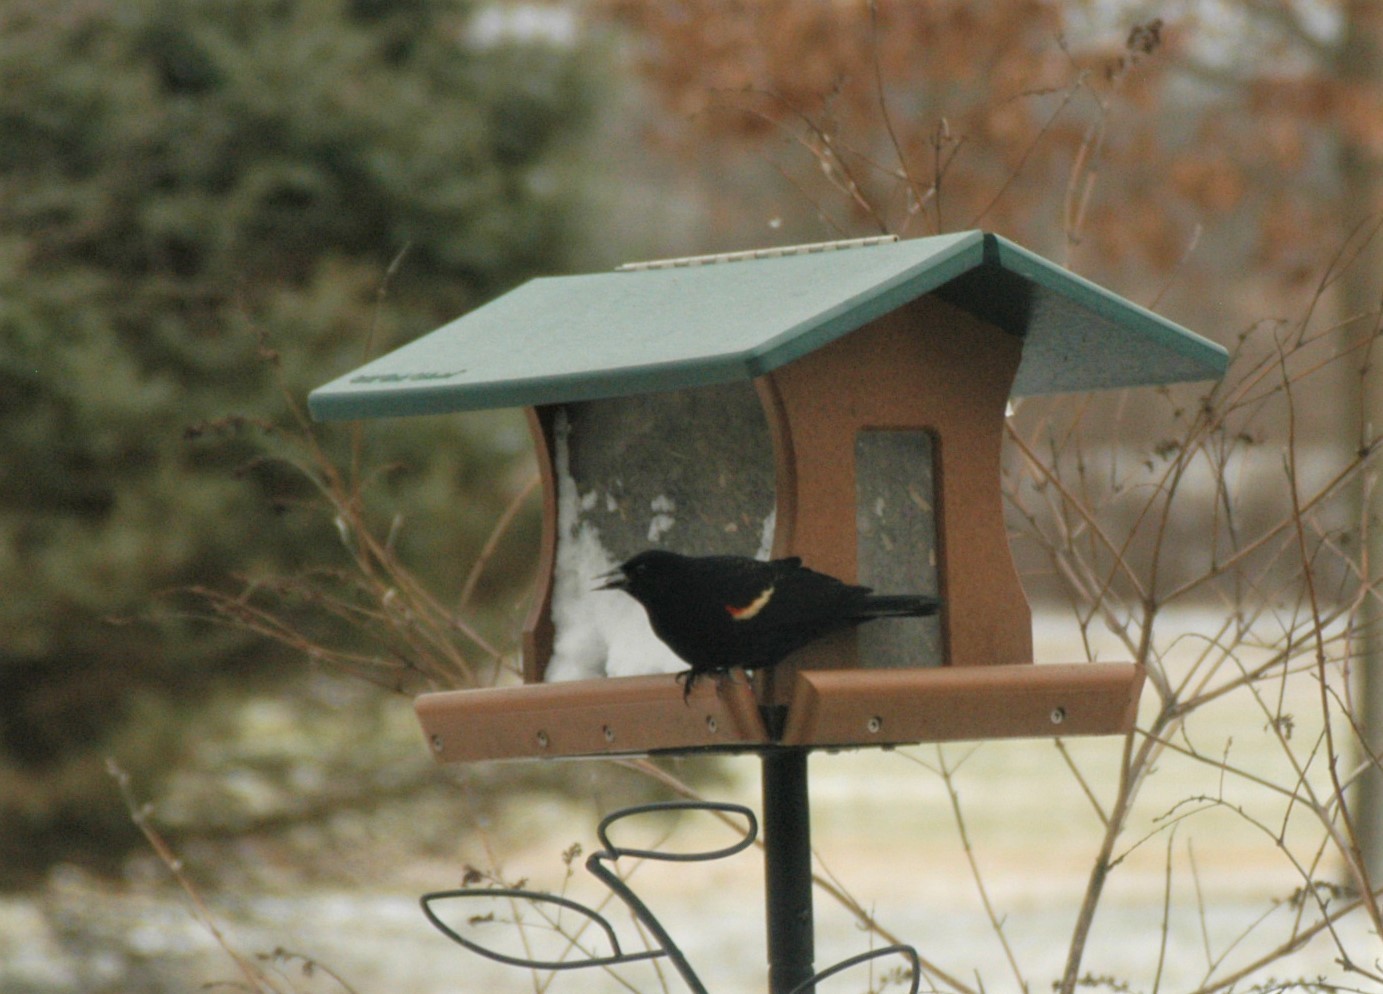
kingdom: Animalia
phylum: Chordata
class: Aves
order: Passeriformes
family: Icteridae
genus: Agelaius
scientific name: Agelaius phoeniceus
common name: Red-winged blackbird
